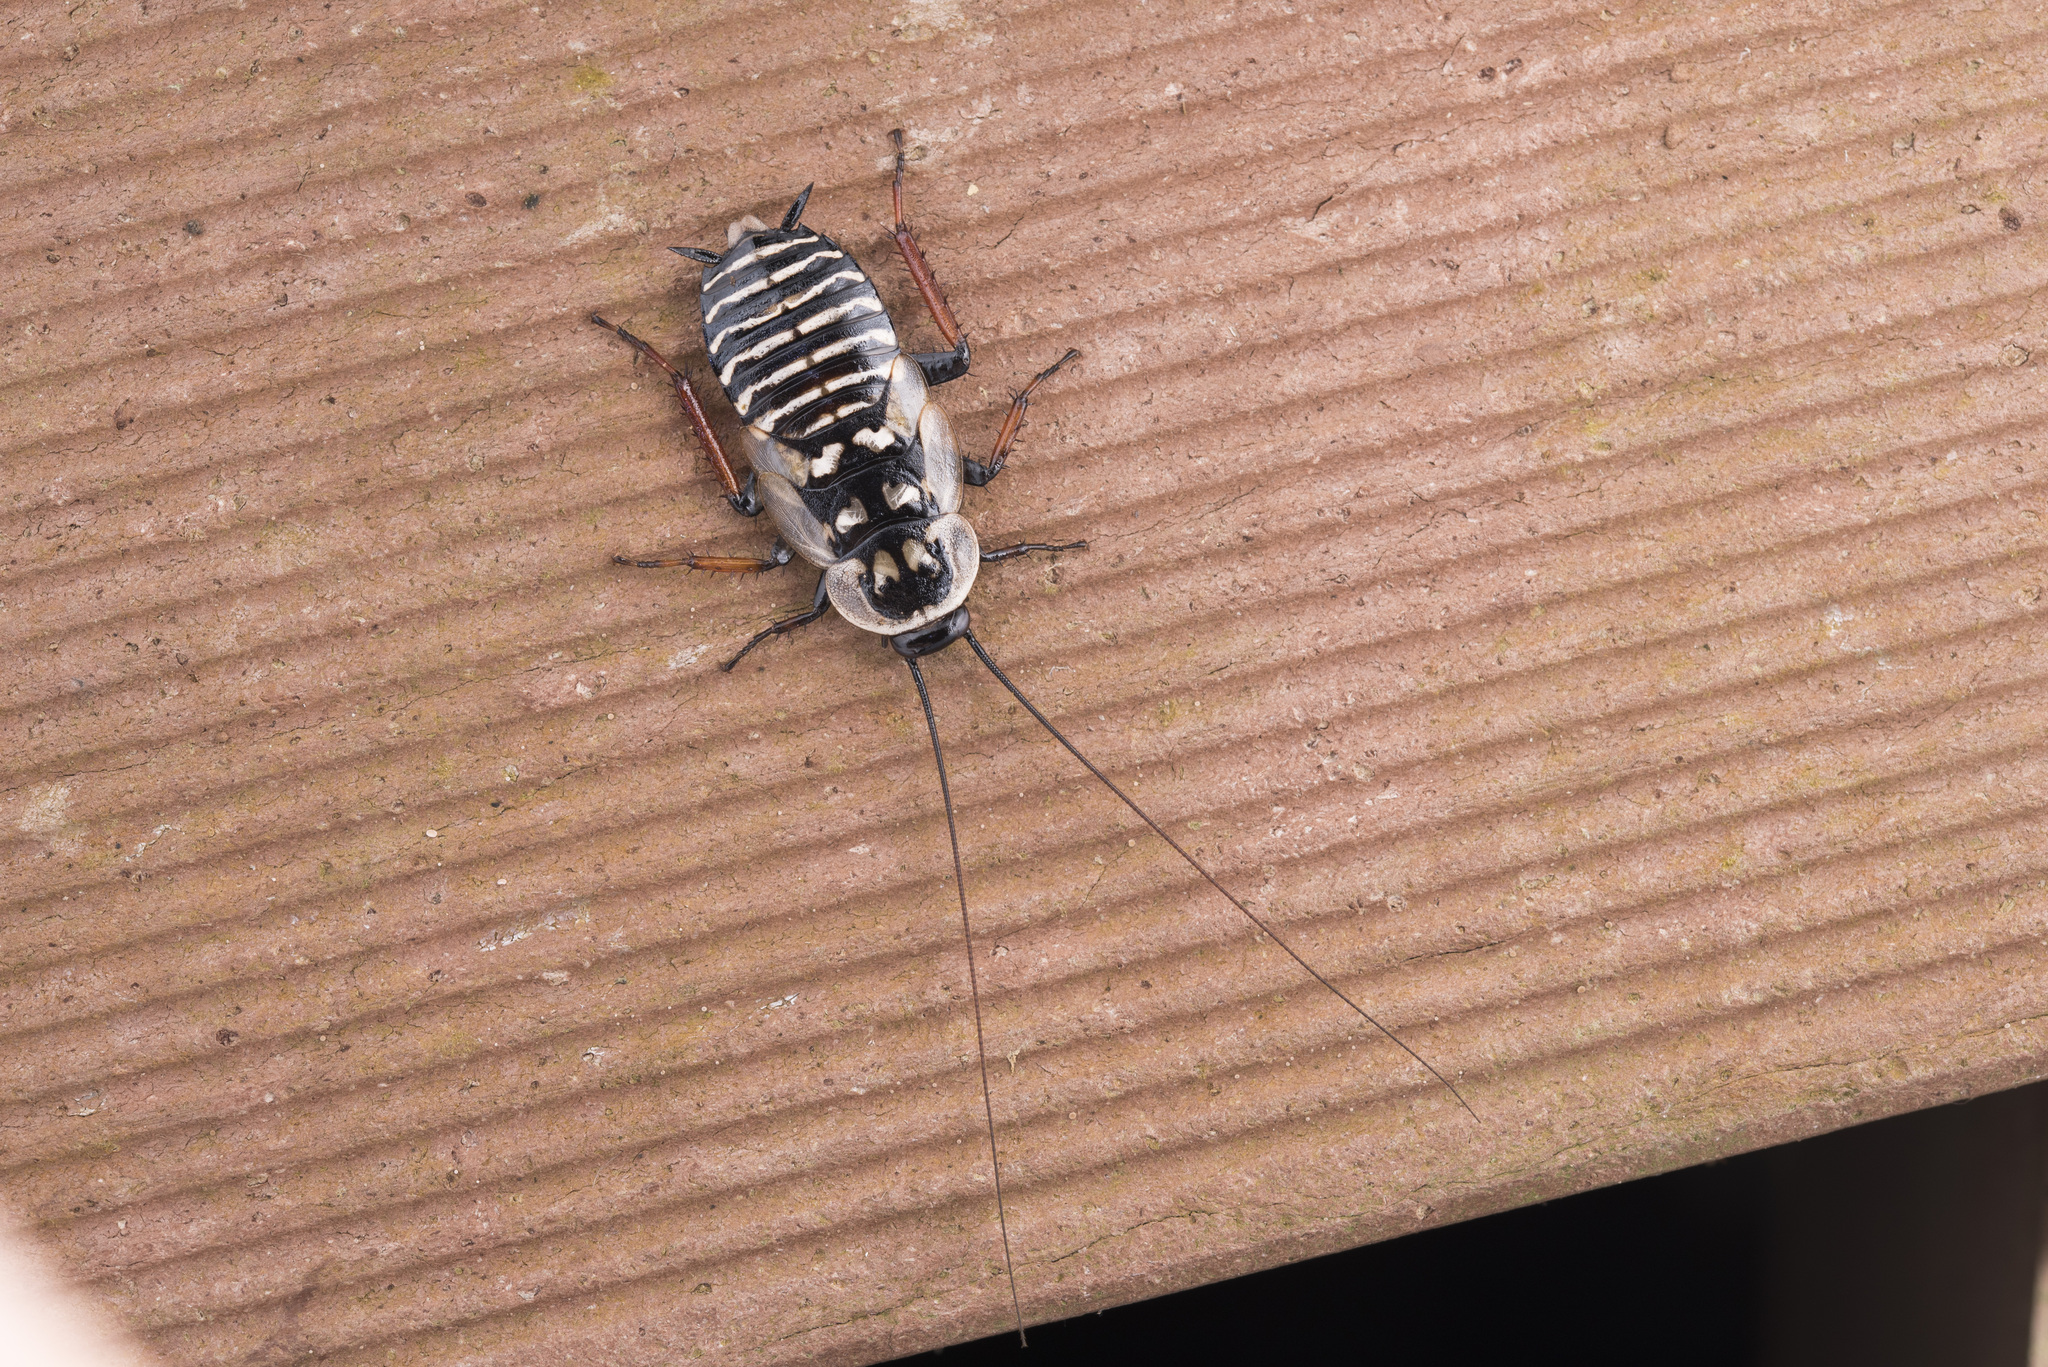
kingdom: Animalia
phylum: Arthropoda
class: Insecta
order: Blattodea
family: Blattidae
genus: Homalosilpha
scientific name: Homalosilpha gaudens
